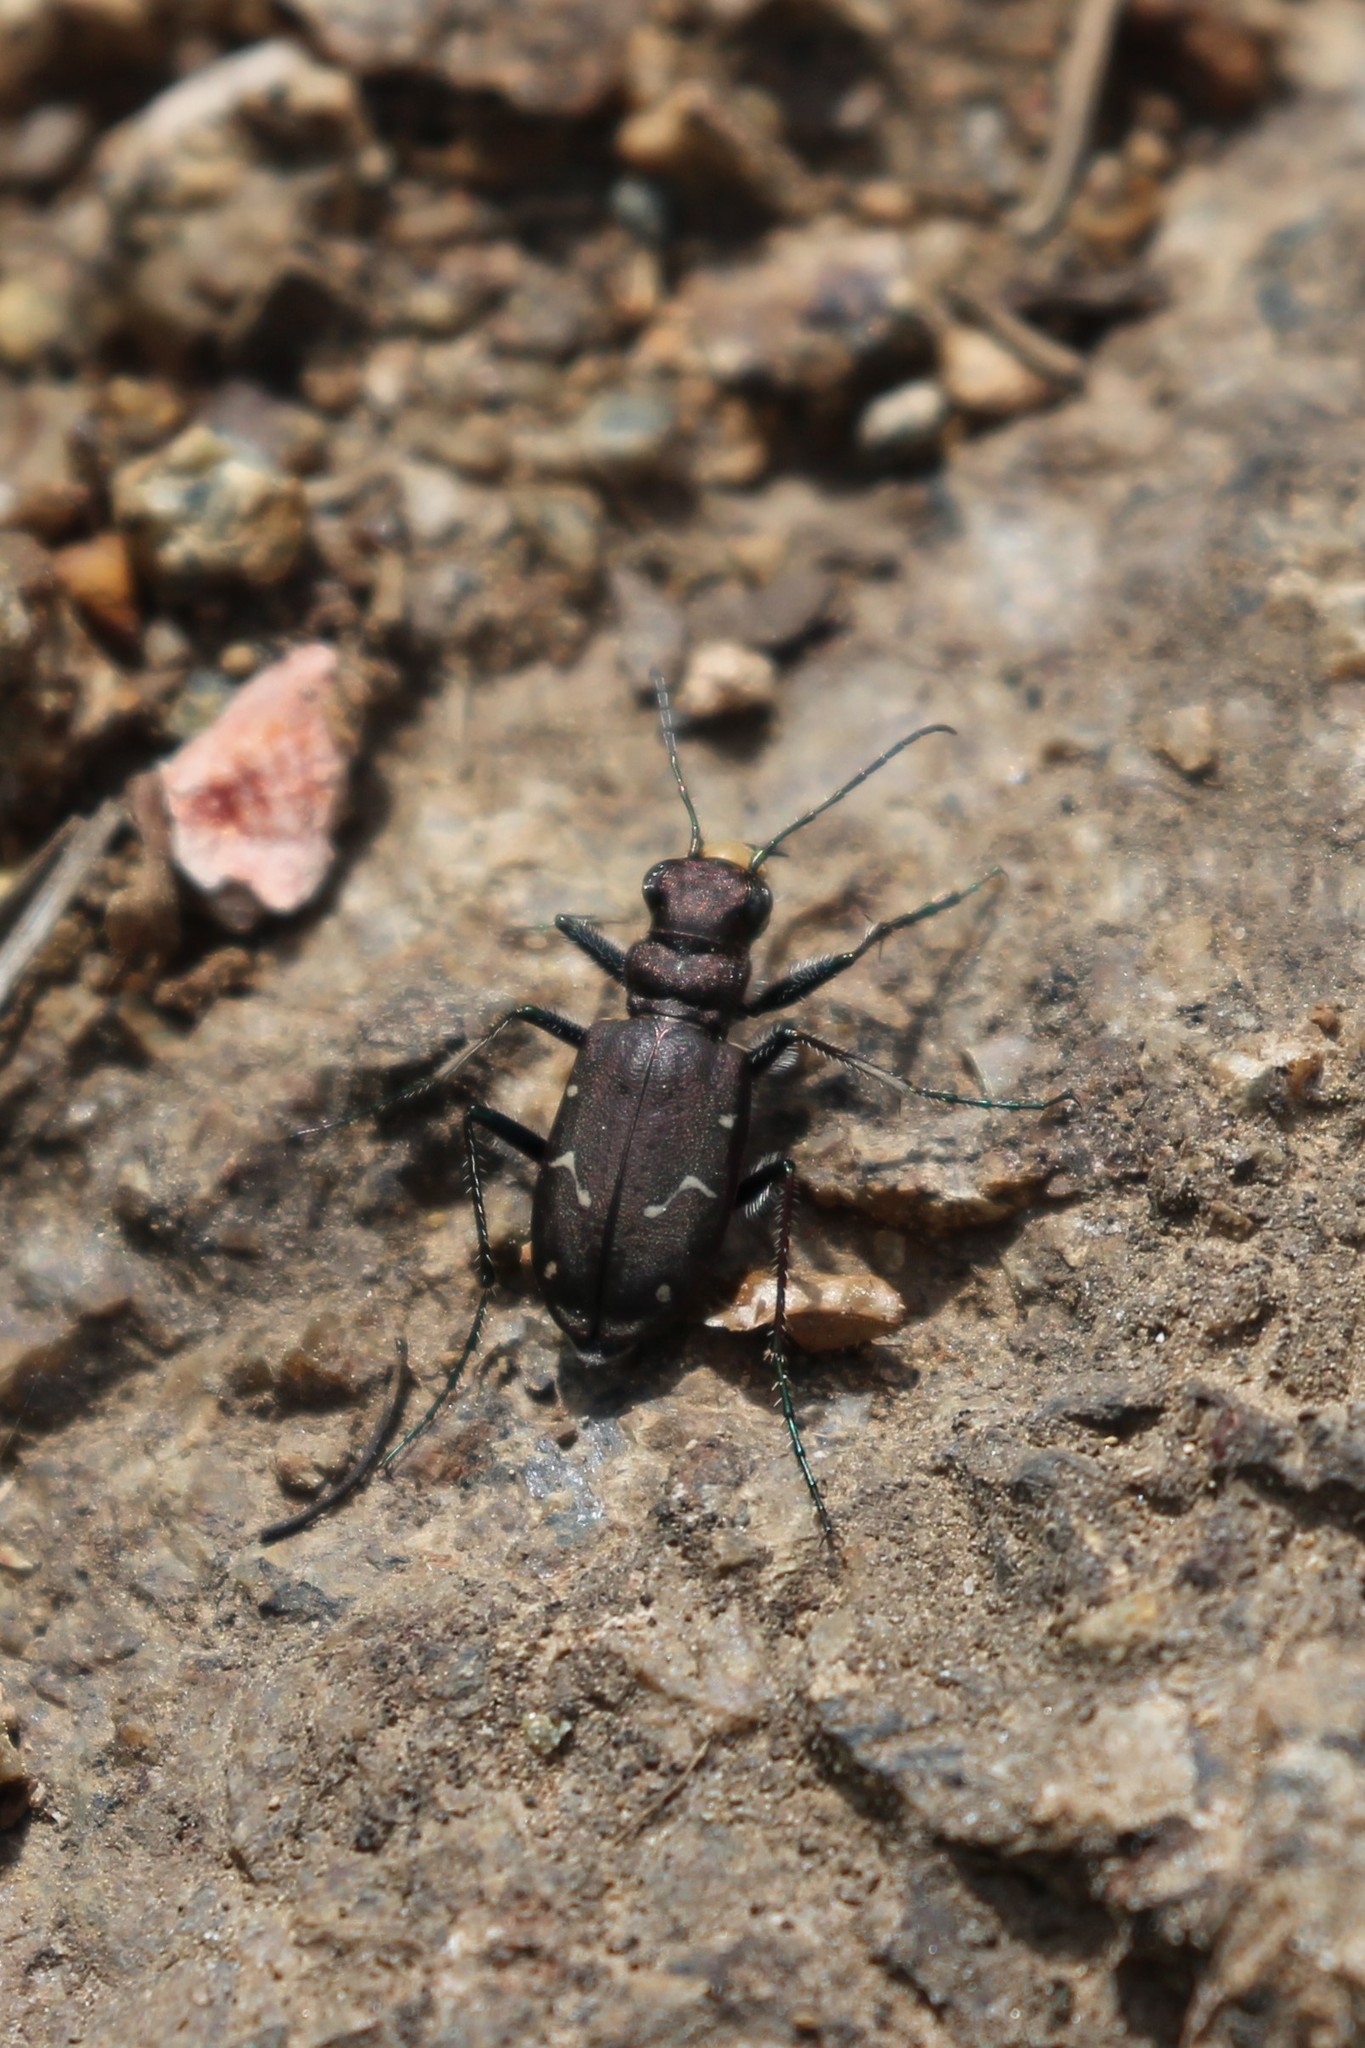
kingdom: Animalia
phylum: Arthropoda
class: Insecta
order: Coleoptera
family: Carabidae
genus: Cicindela
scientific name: Cicindela longilabris
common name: Boreal long-lipped tiger beetle
